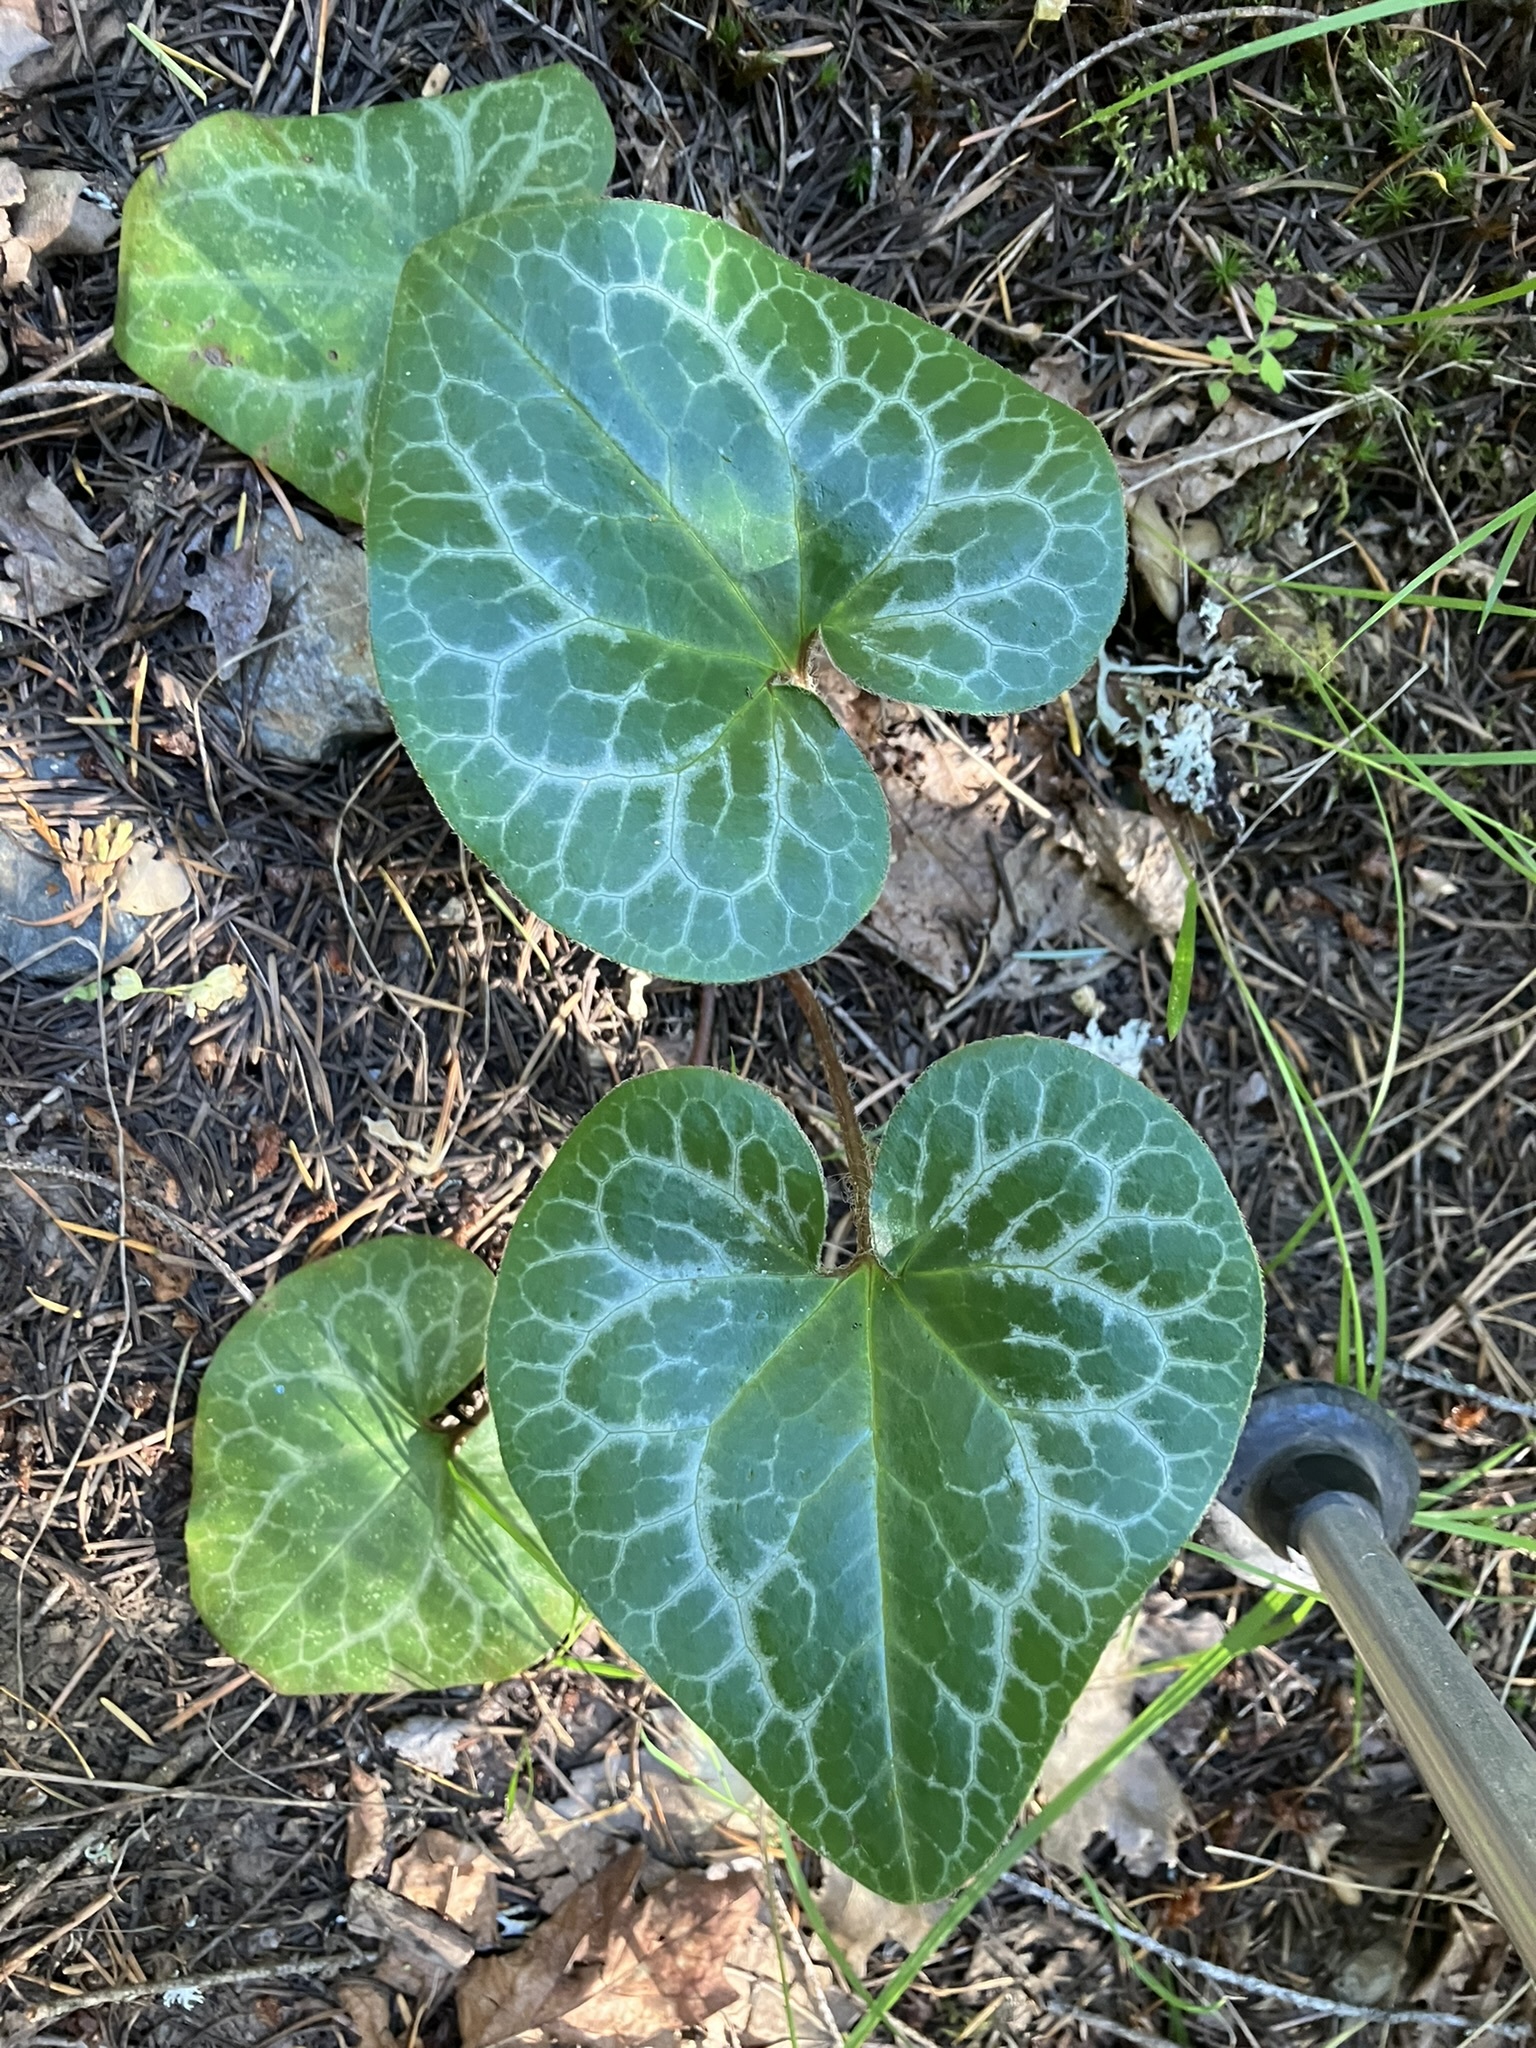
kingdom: Plantae
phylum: Tracheophyta
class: Magnoliopsida
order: Piperales
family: Aristolochiaceae
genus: Asarum
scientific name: Asarum hartwegii
